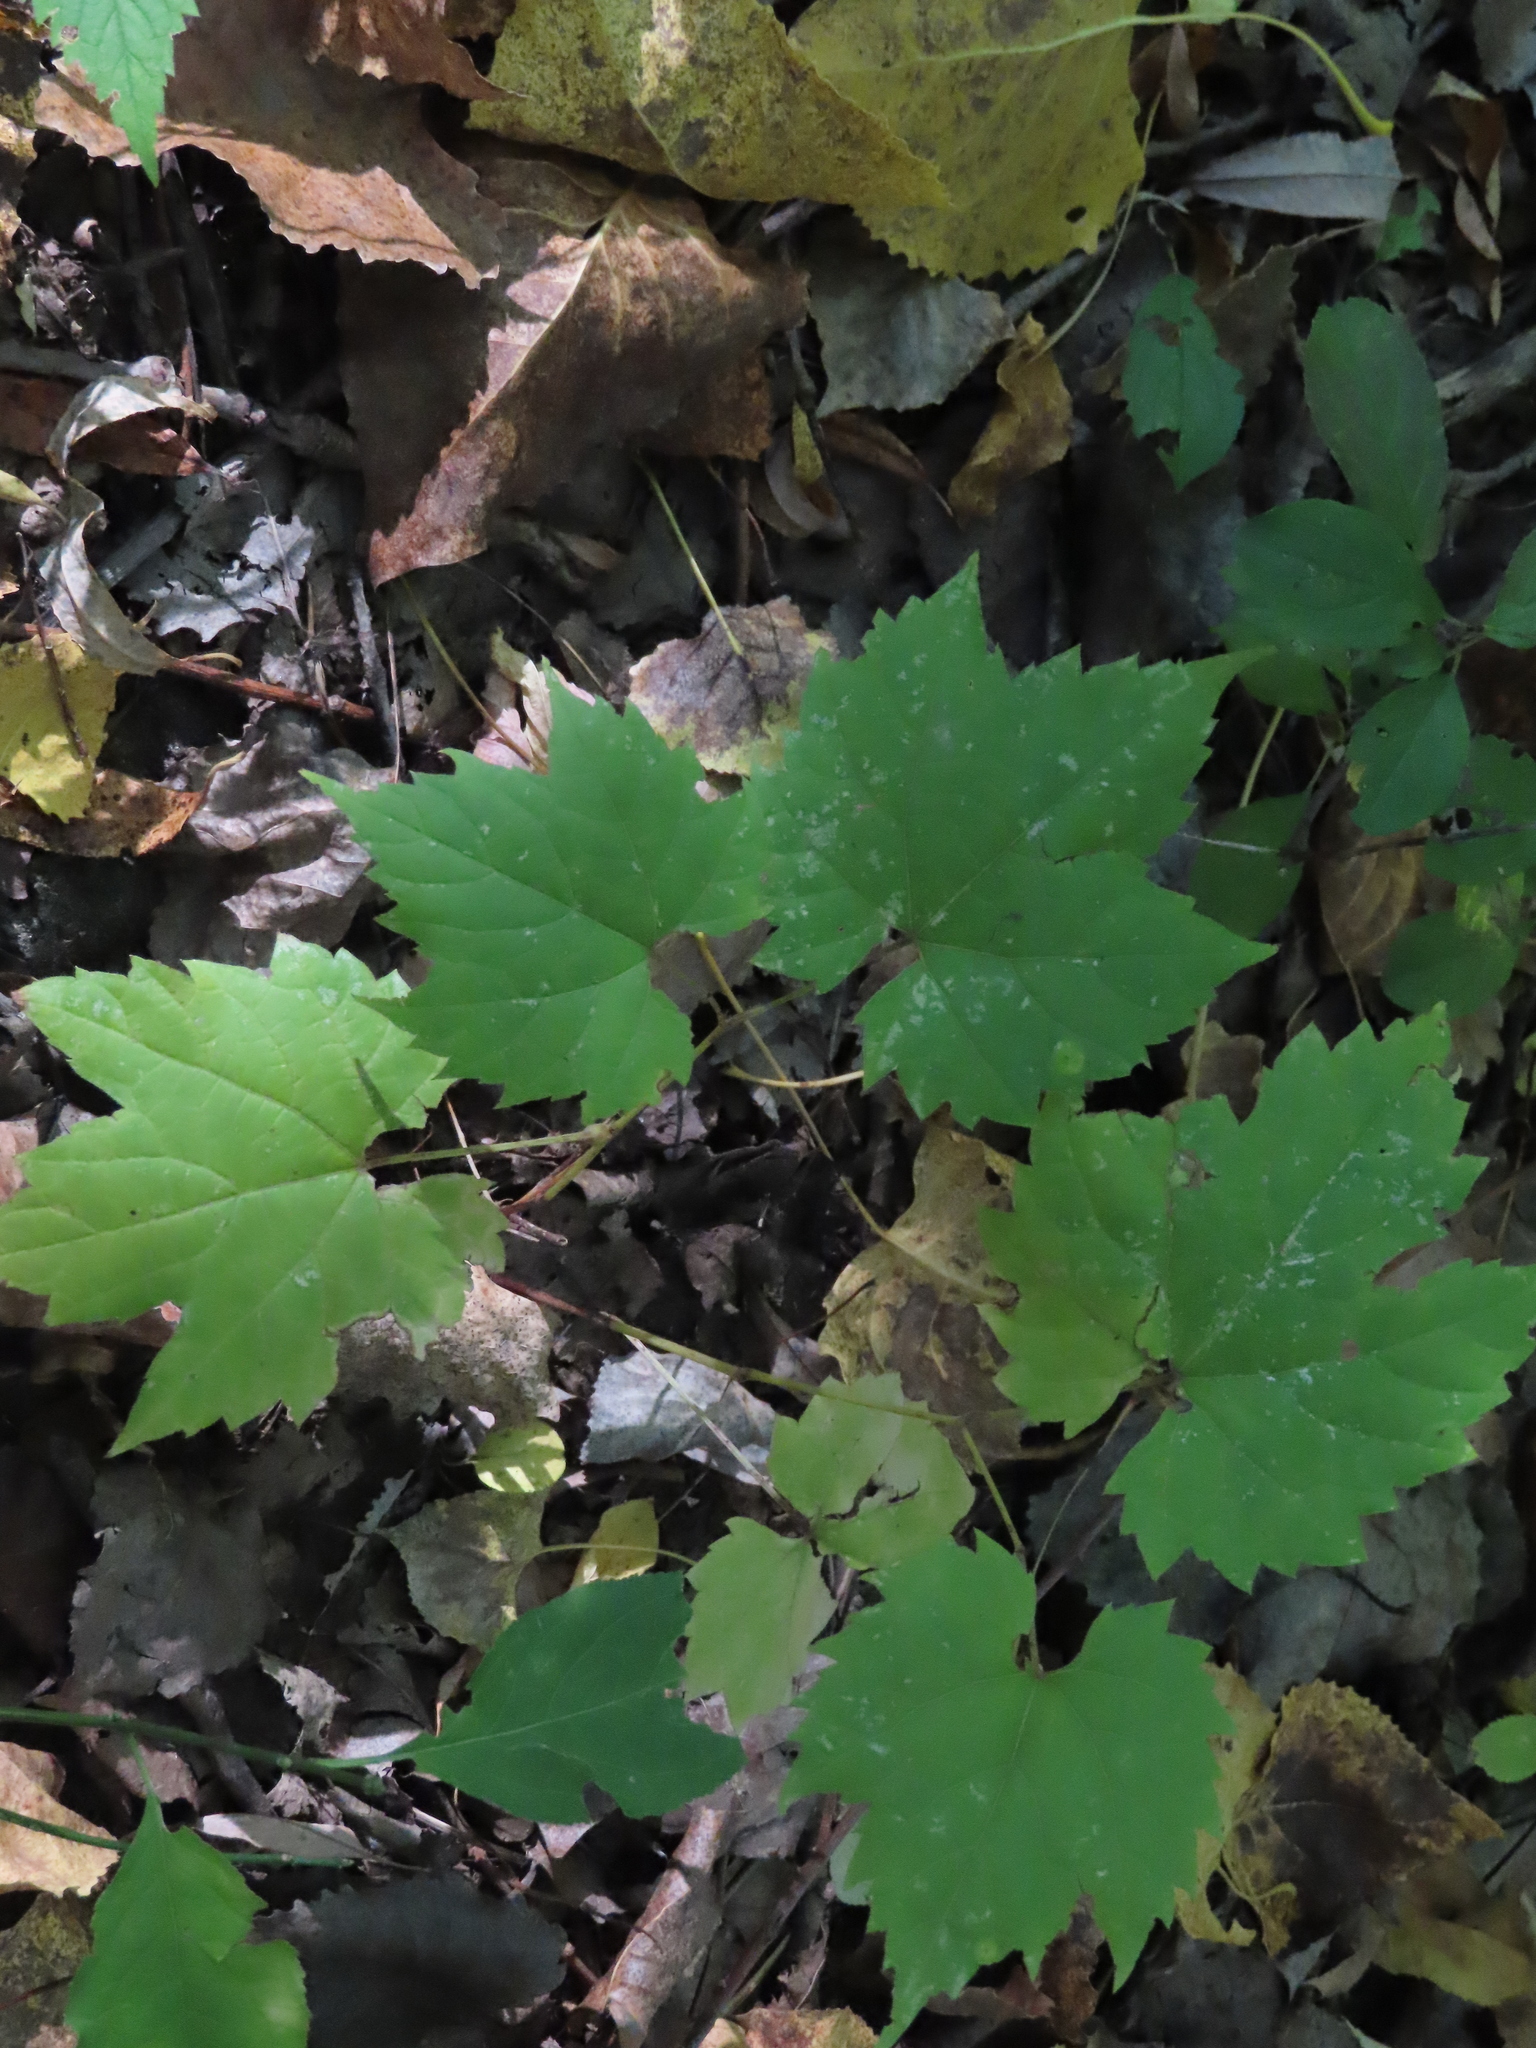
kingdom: Plantae
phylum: Tracheophyta
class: Magnoliopsida
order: Vitales
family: Vitaceae
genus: Vitis
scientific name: Vitis riparia
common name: Frost grape
